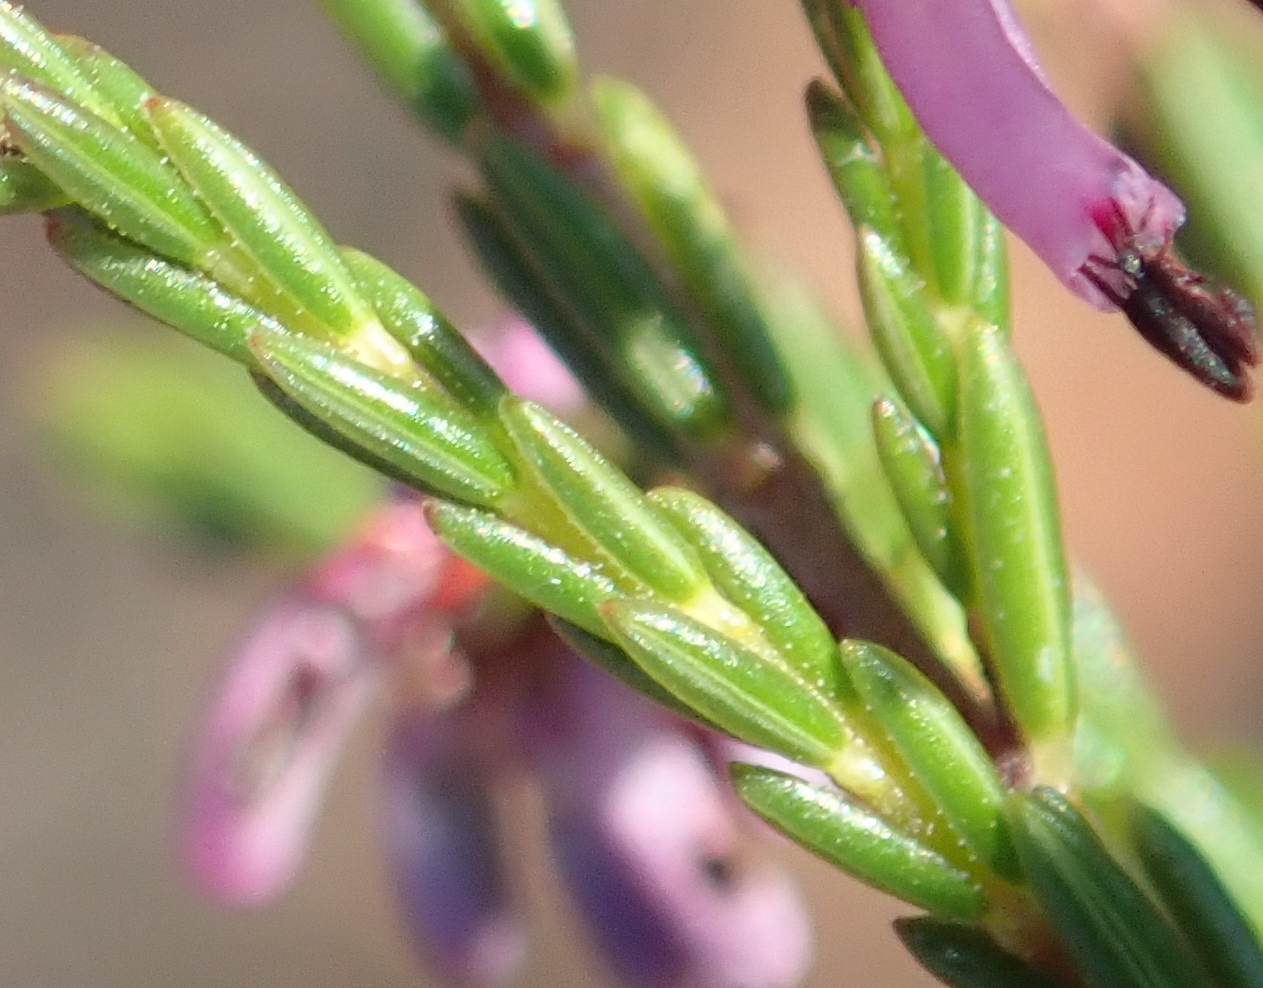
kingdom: Plantae
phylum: Tracheophyta
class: Magnoliopsida
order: Ericales
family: Ericaceae
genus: Erica
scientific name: Erica uberiflora
